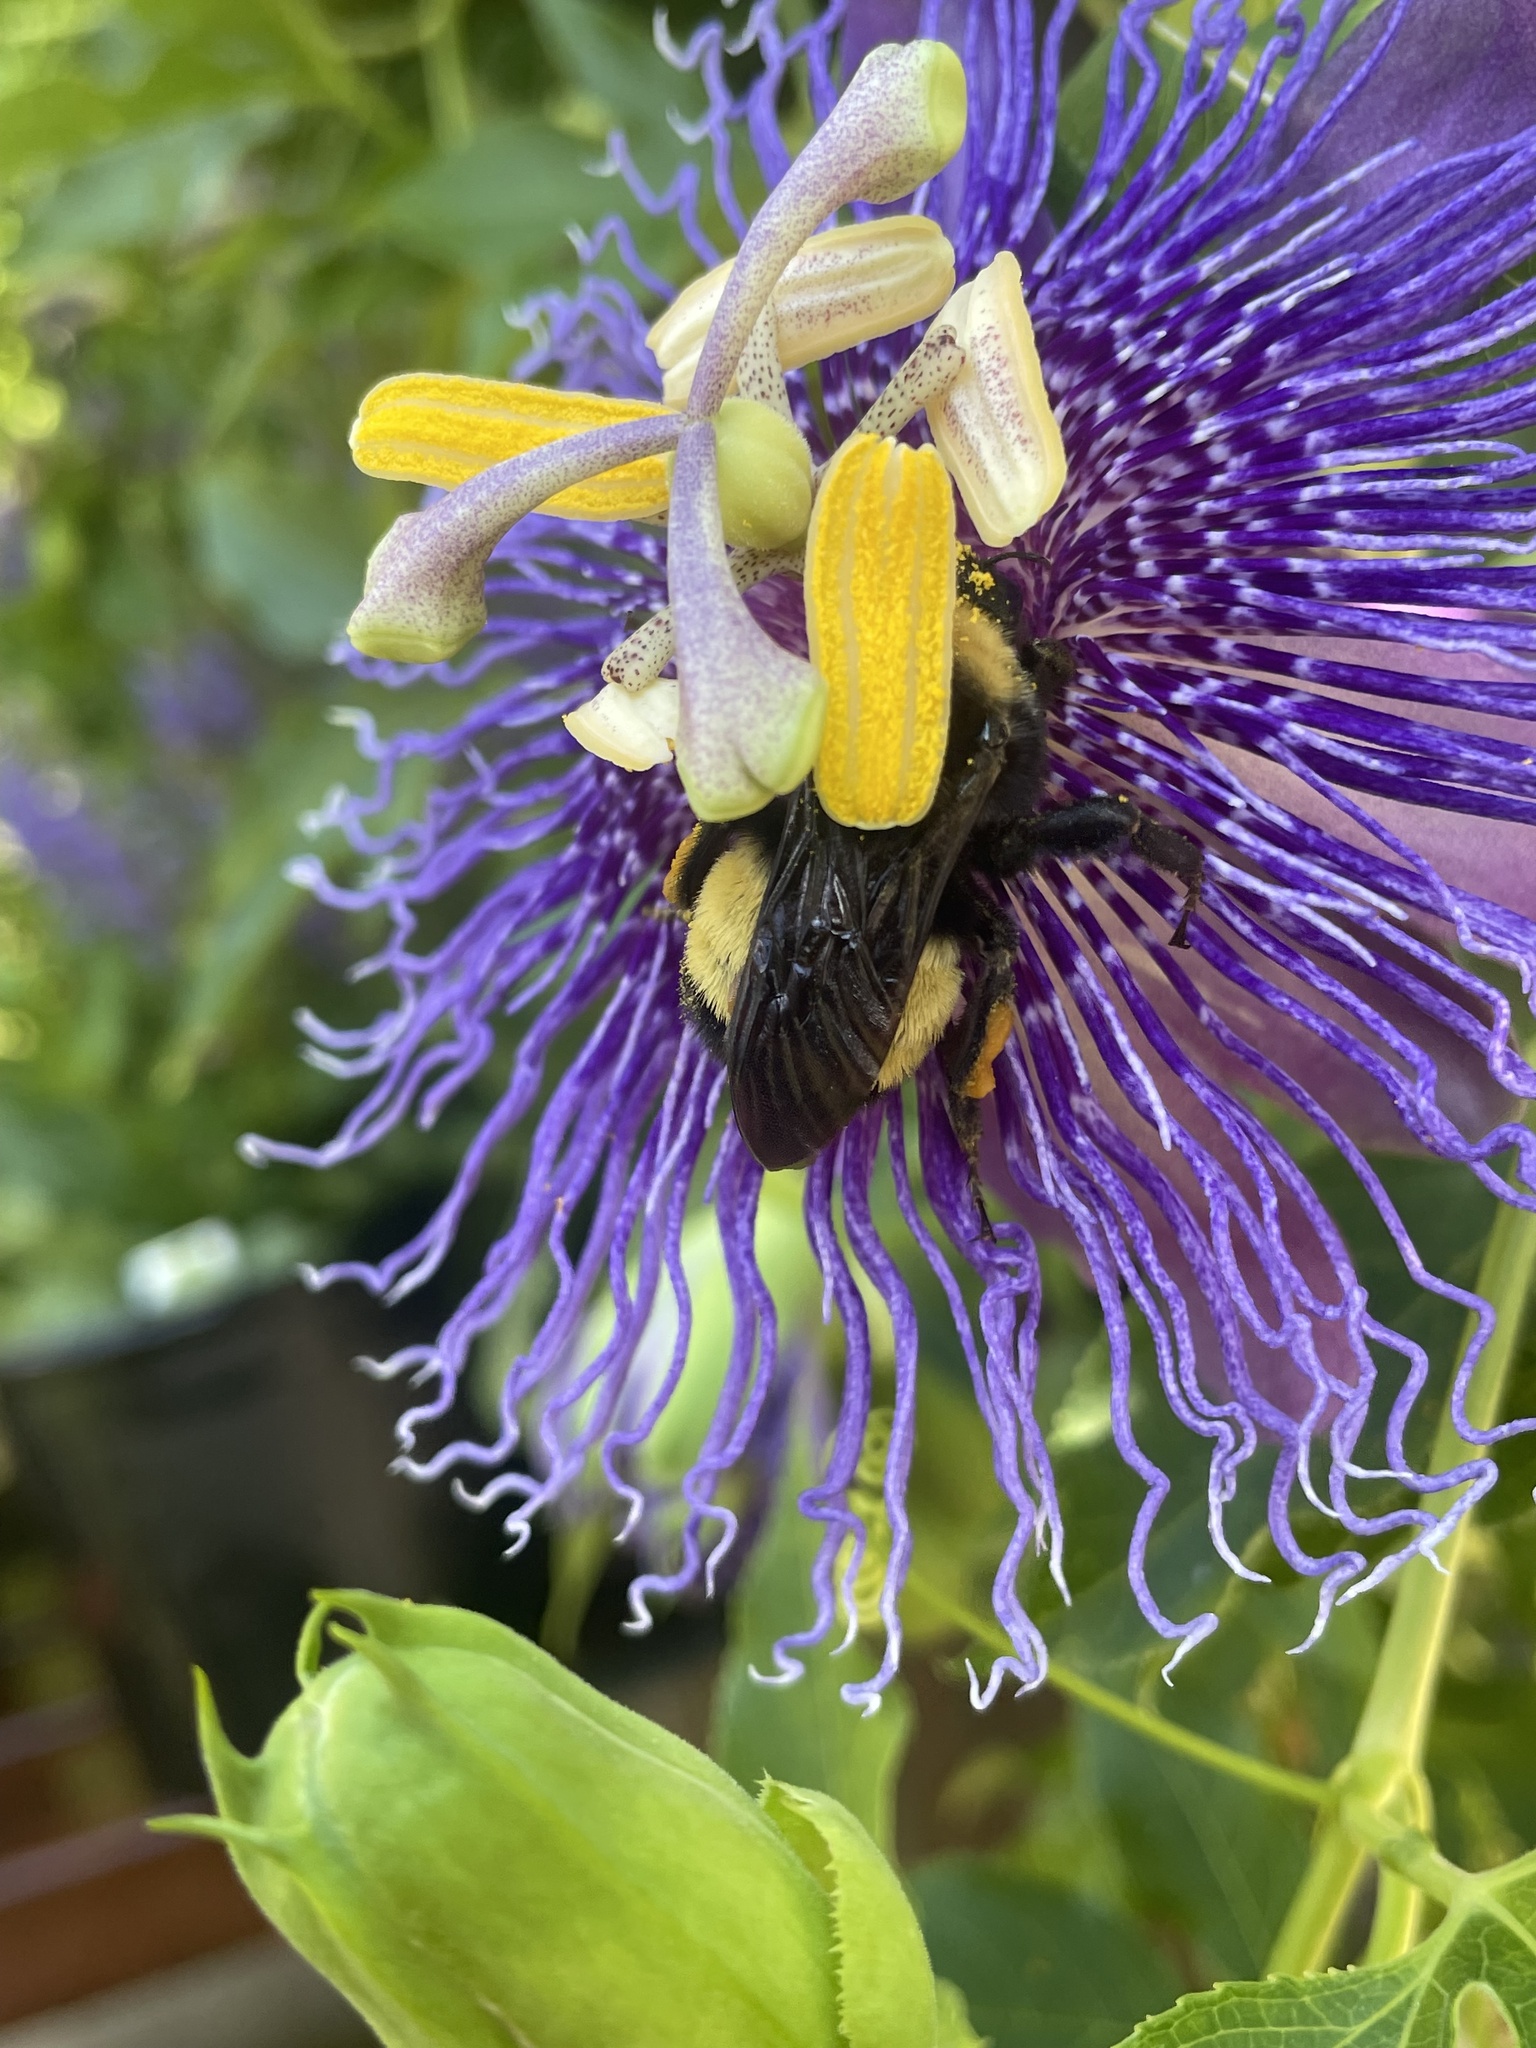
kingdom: Animalia
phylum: Arthropoda
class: Insecta
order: Hymenoptera
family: Apidae
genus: Bombus
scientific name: Bombus pensylvanicus
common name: Bumble bee
